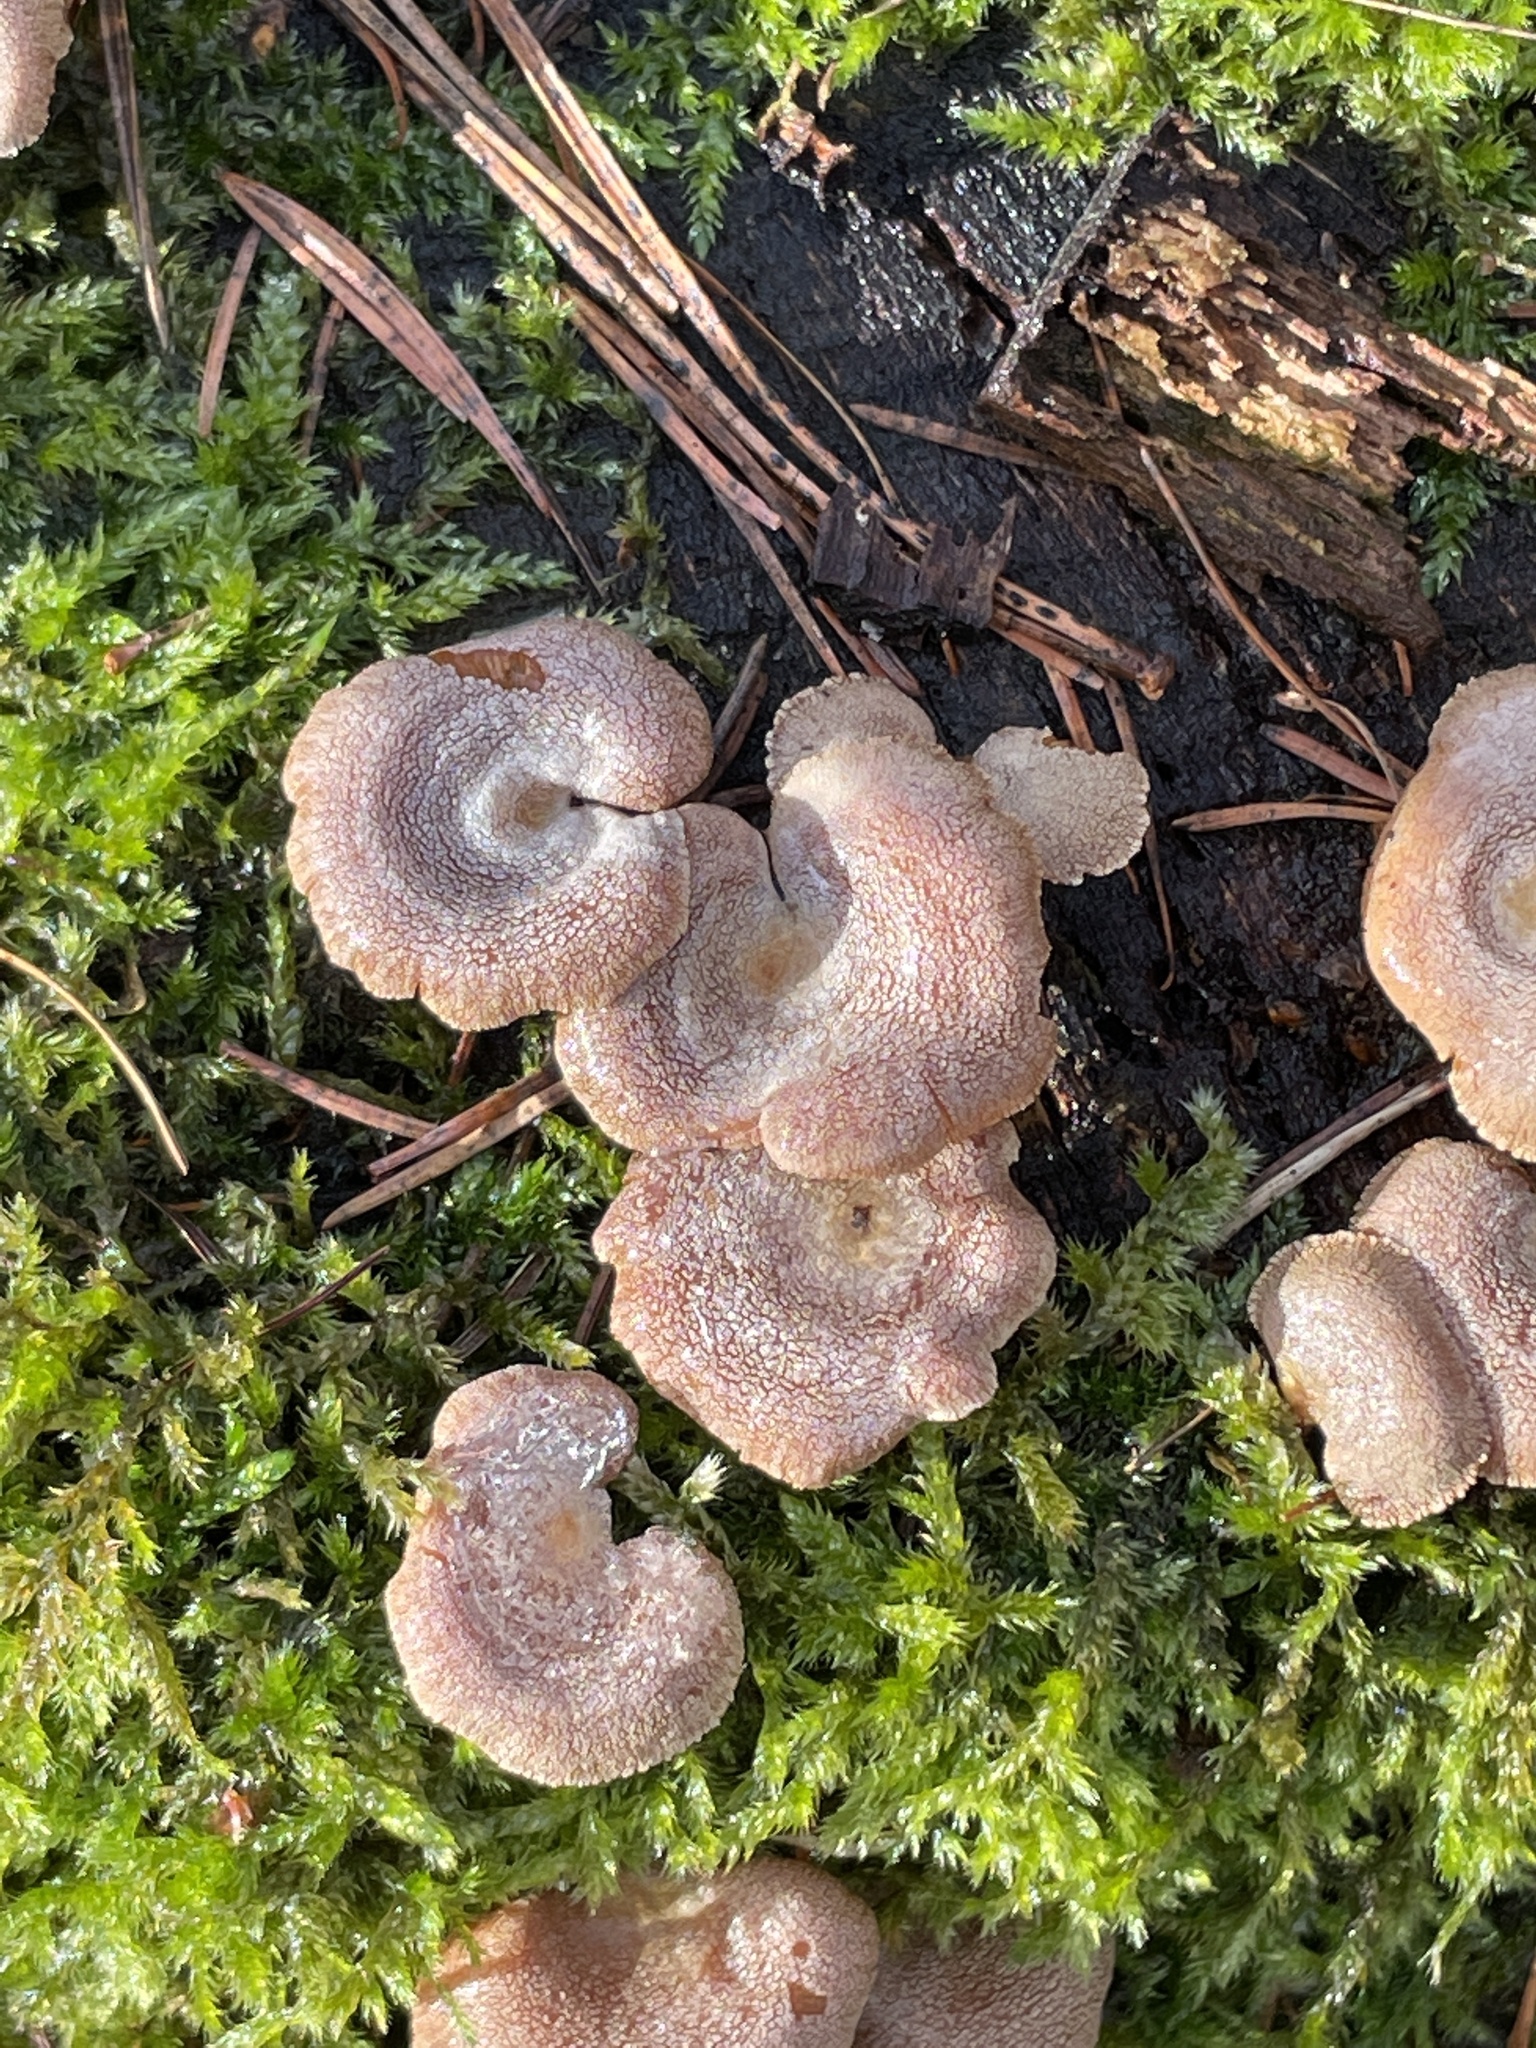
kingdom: Fungi
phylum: Basidiomycota
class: Agaricomycetes
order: Agaricales
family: Mycenaceae
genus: Panellus
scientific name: Panellus stipticus
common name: Bitter oysterling
